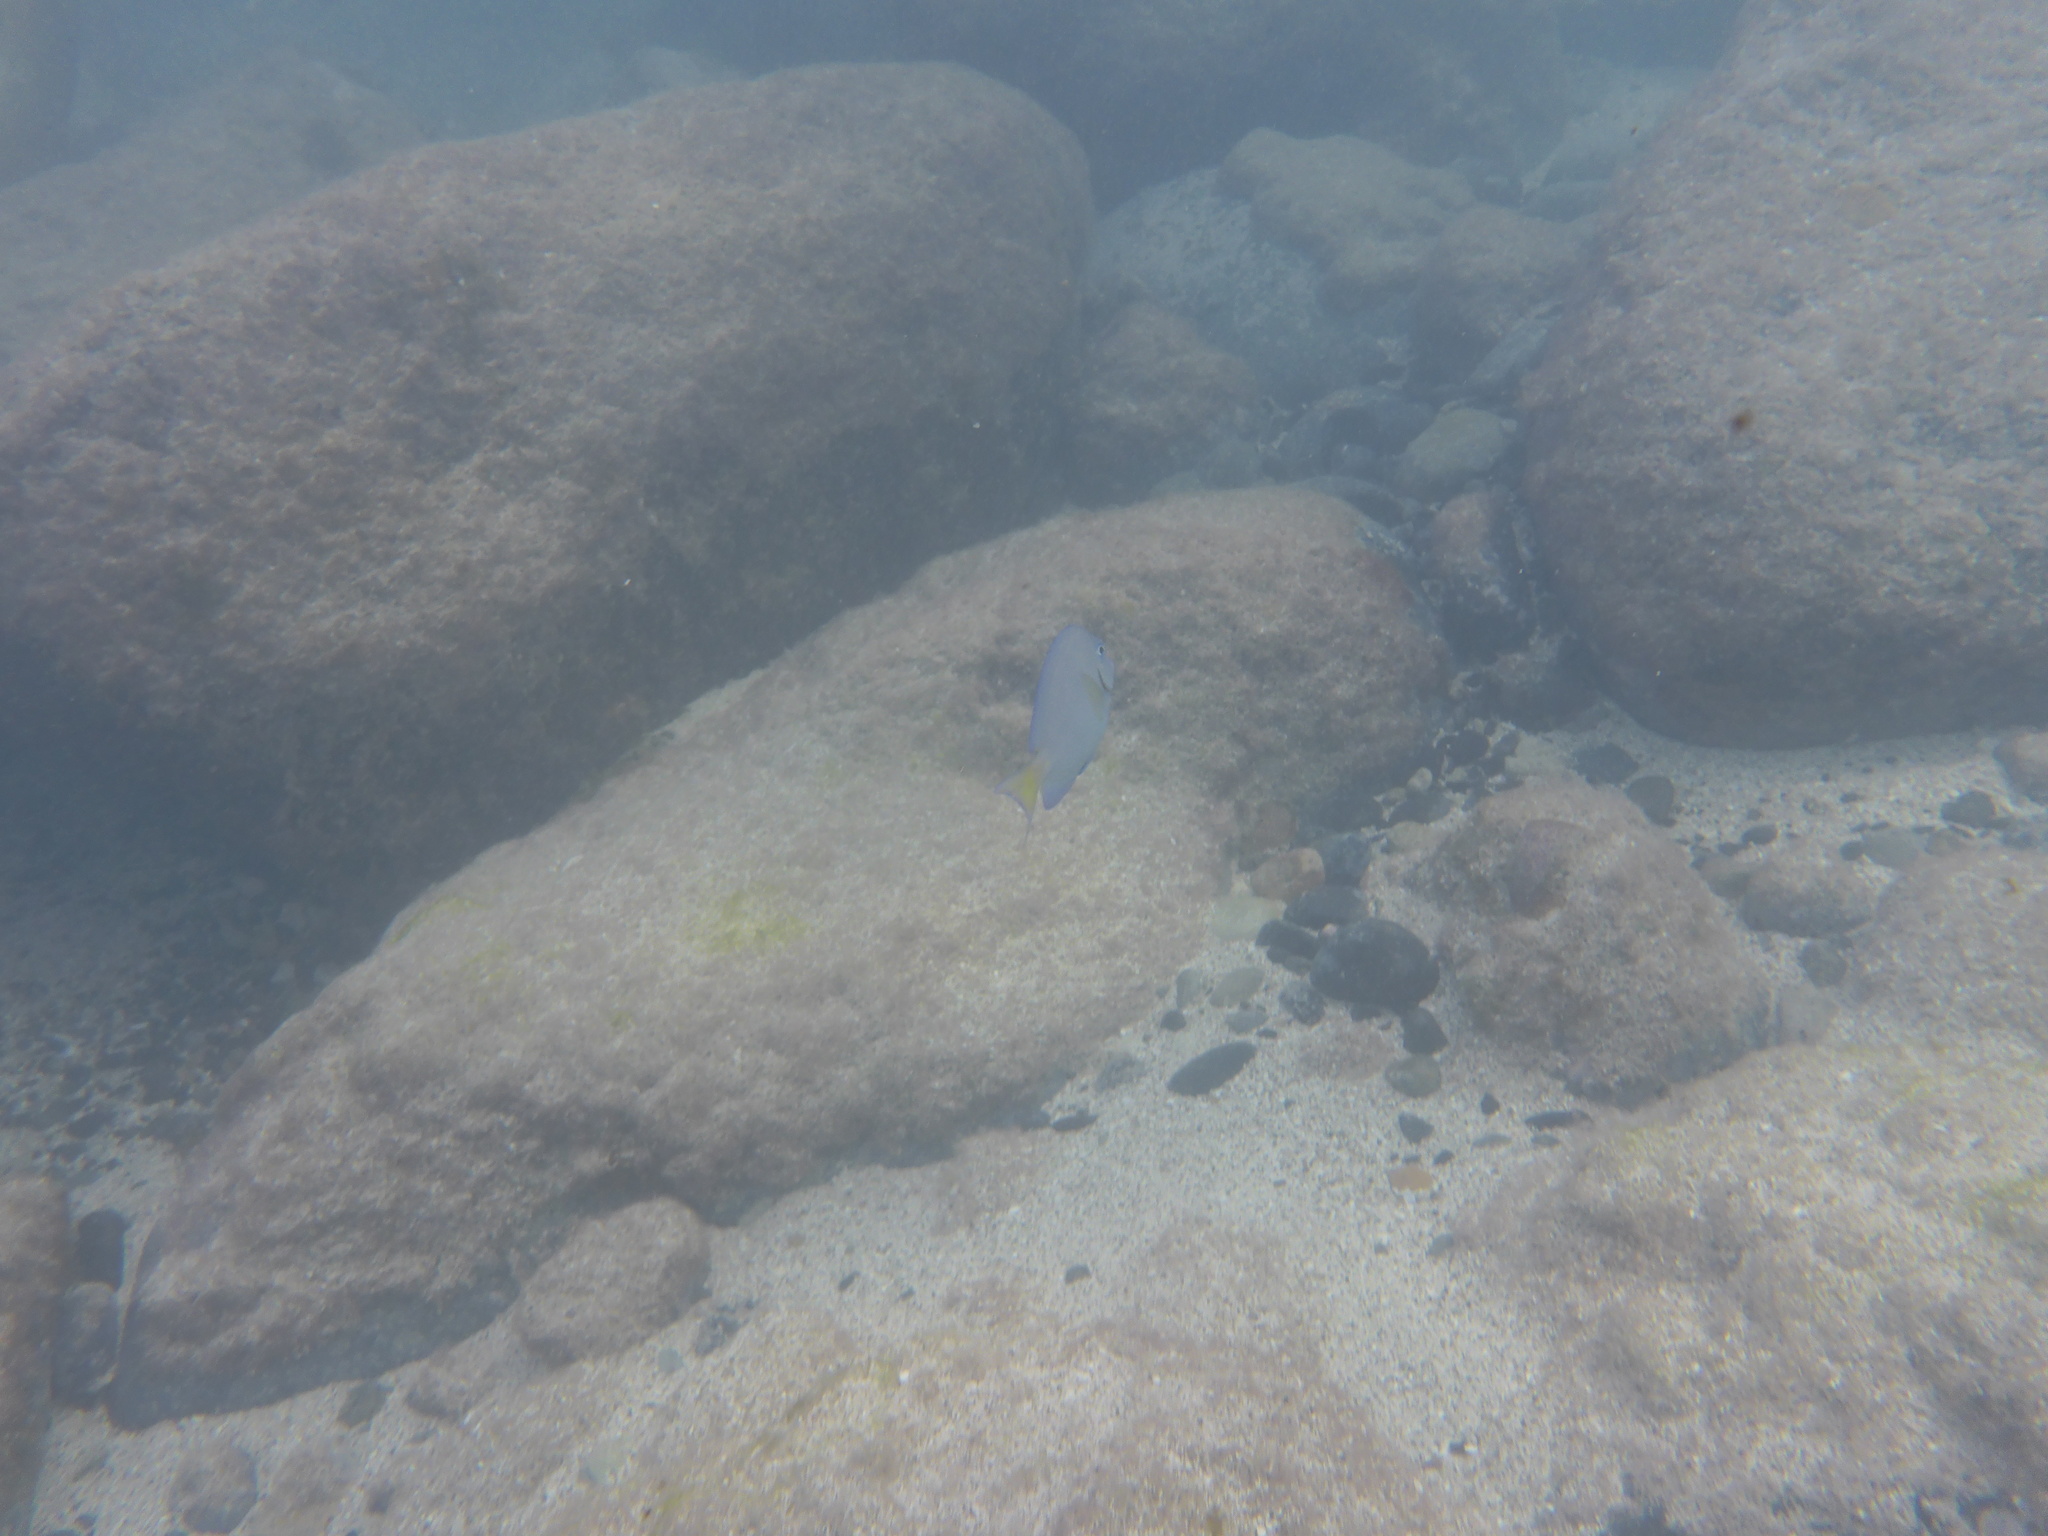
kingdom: Animalia
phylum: Chordata
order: Perciformes
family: Acanthuridae
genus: Acanthurus
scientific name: Acanthurus coeruleus
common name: Blue tang
